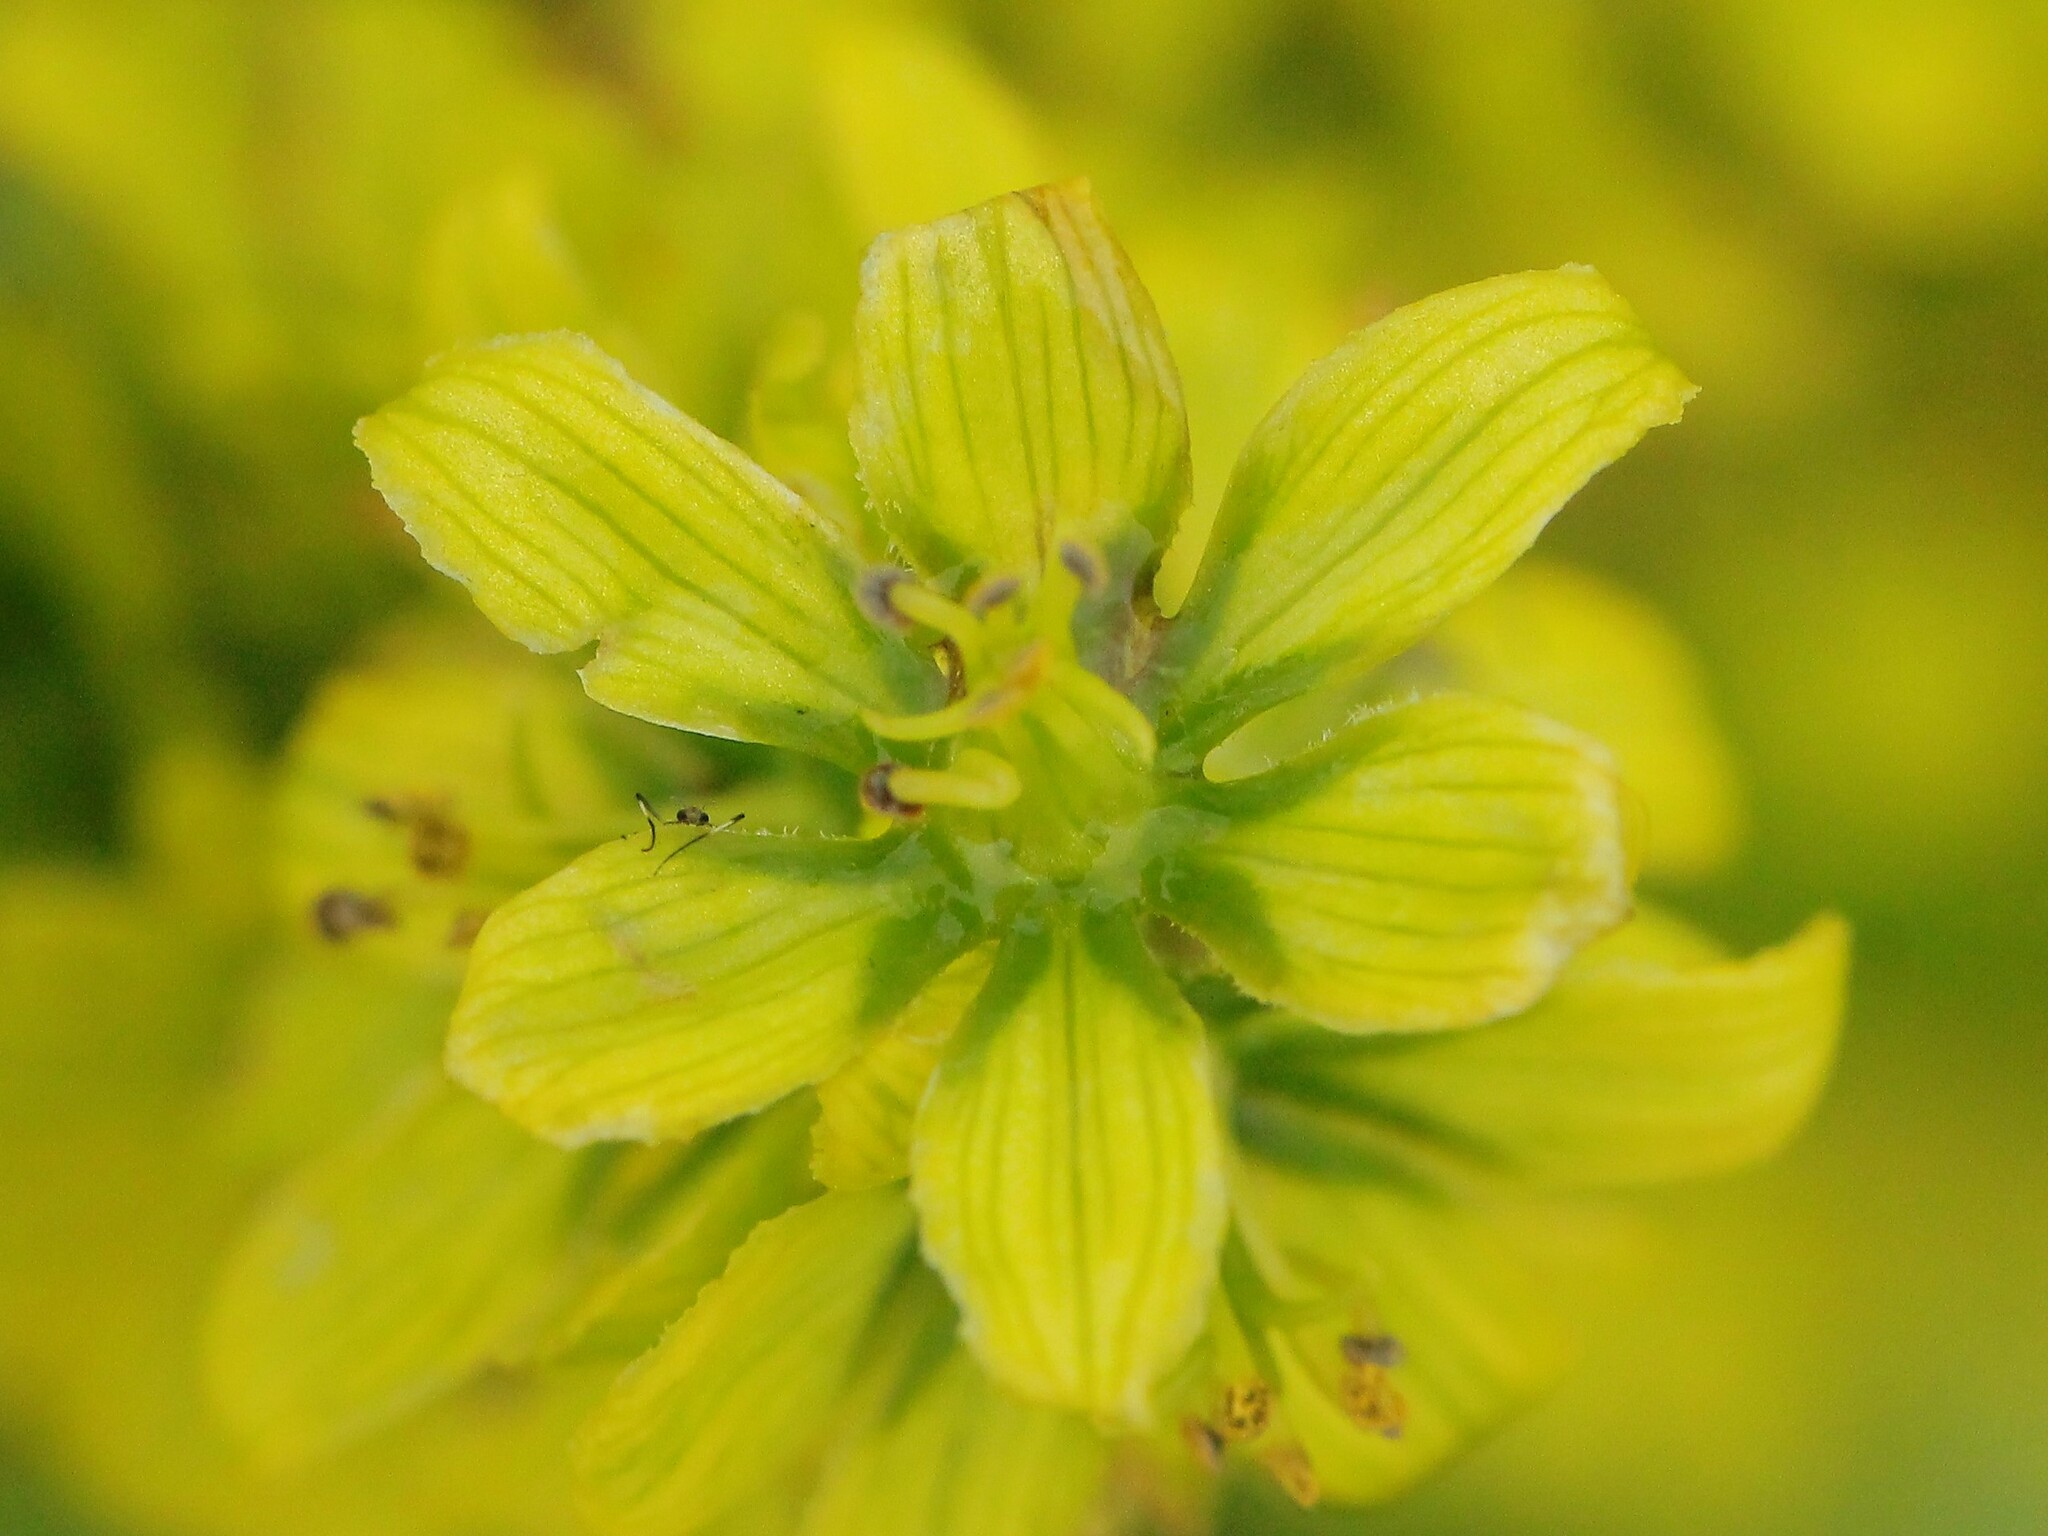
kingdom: Plantae
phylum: Tracheophyta
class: Liliopsida
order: Liliales
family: Melanthiaceae
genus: Veratrum
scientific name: Veratrum lobelianum
